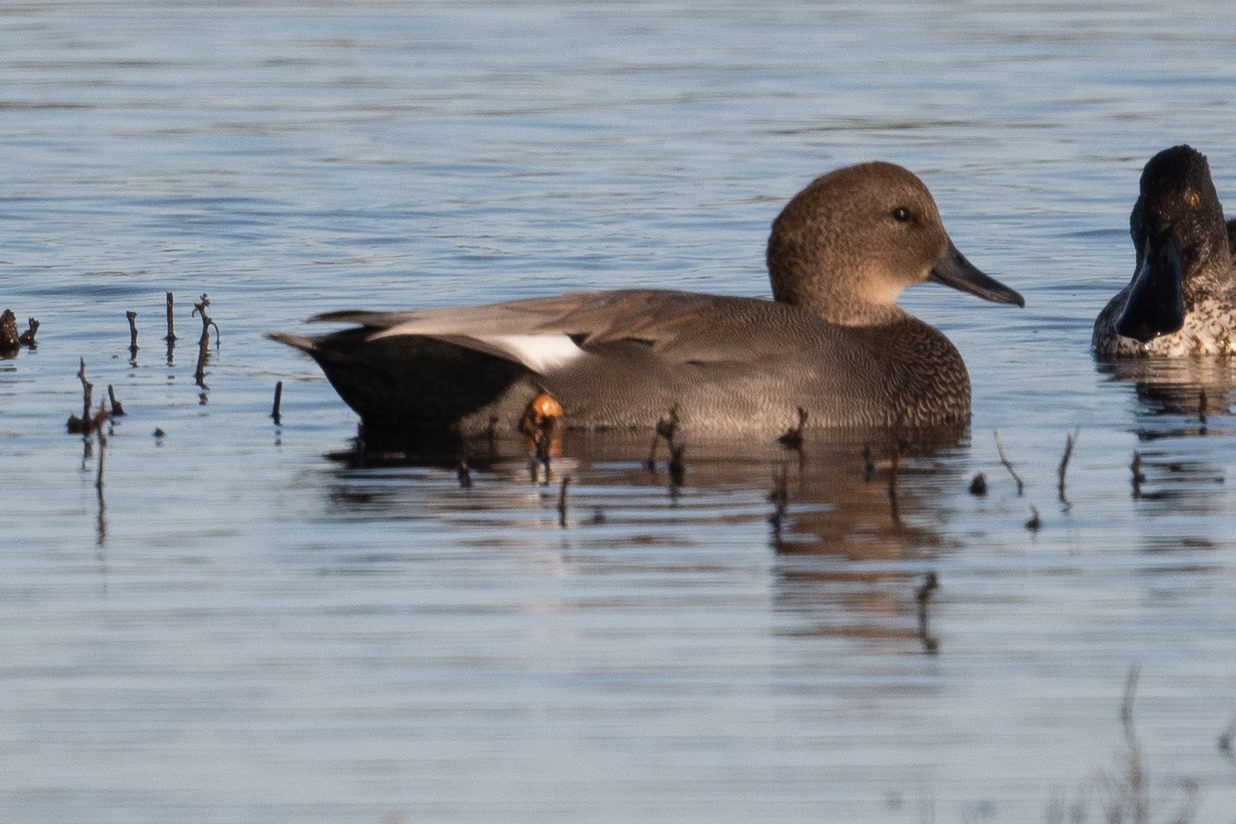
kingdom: Animalia
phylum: Chordata
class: Aves
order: Anseriformes
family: Anatidae
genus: Mareca
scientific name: Mareca strepera
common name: Gadwall
